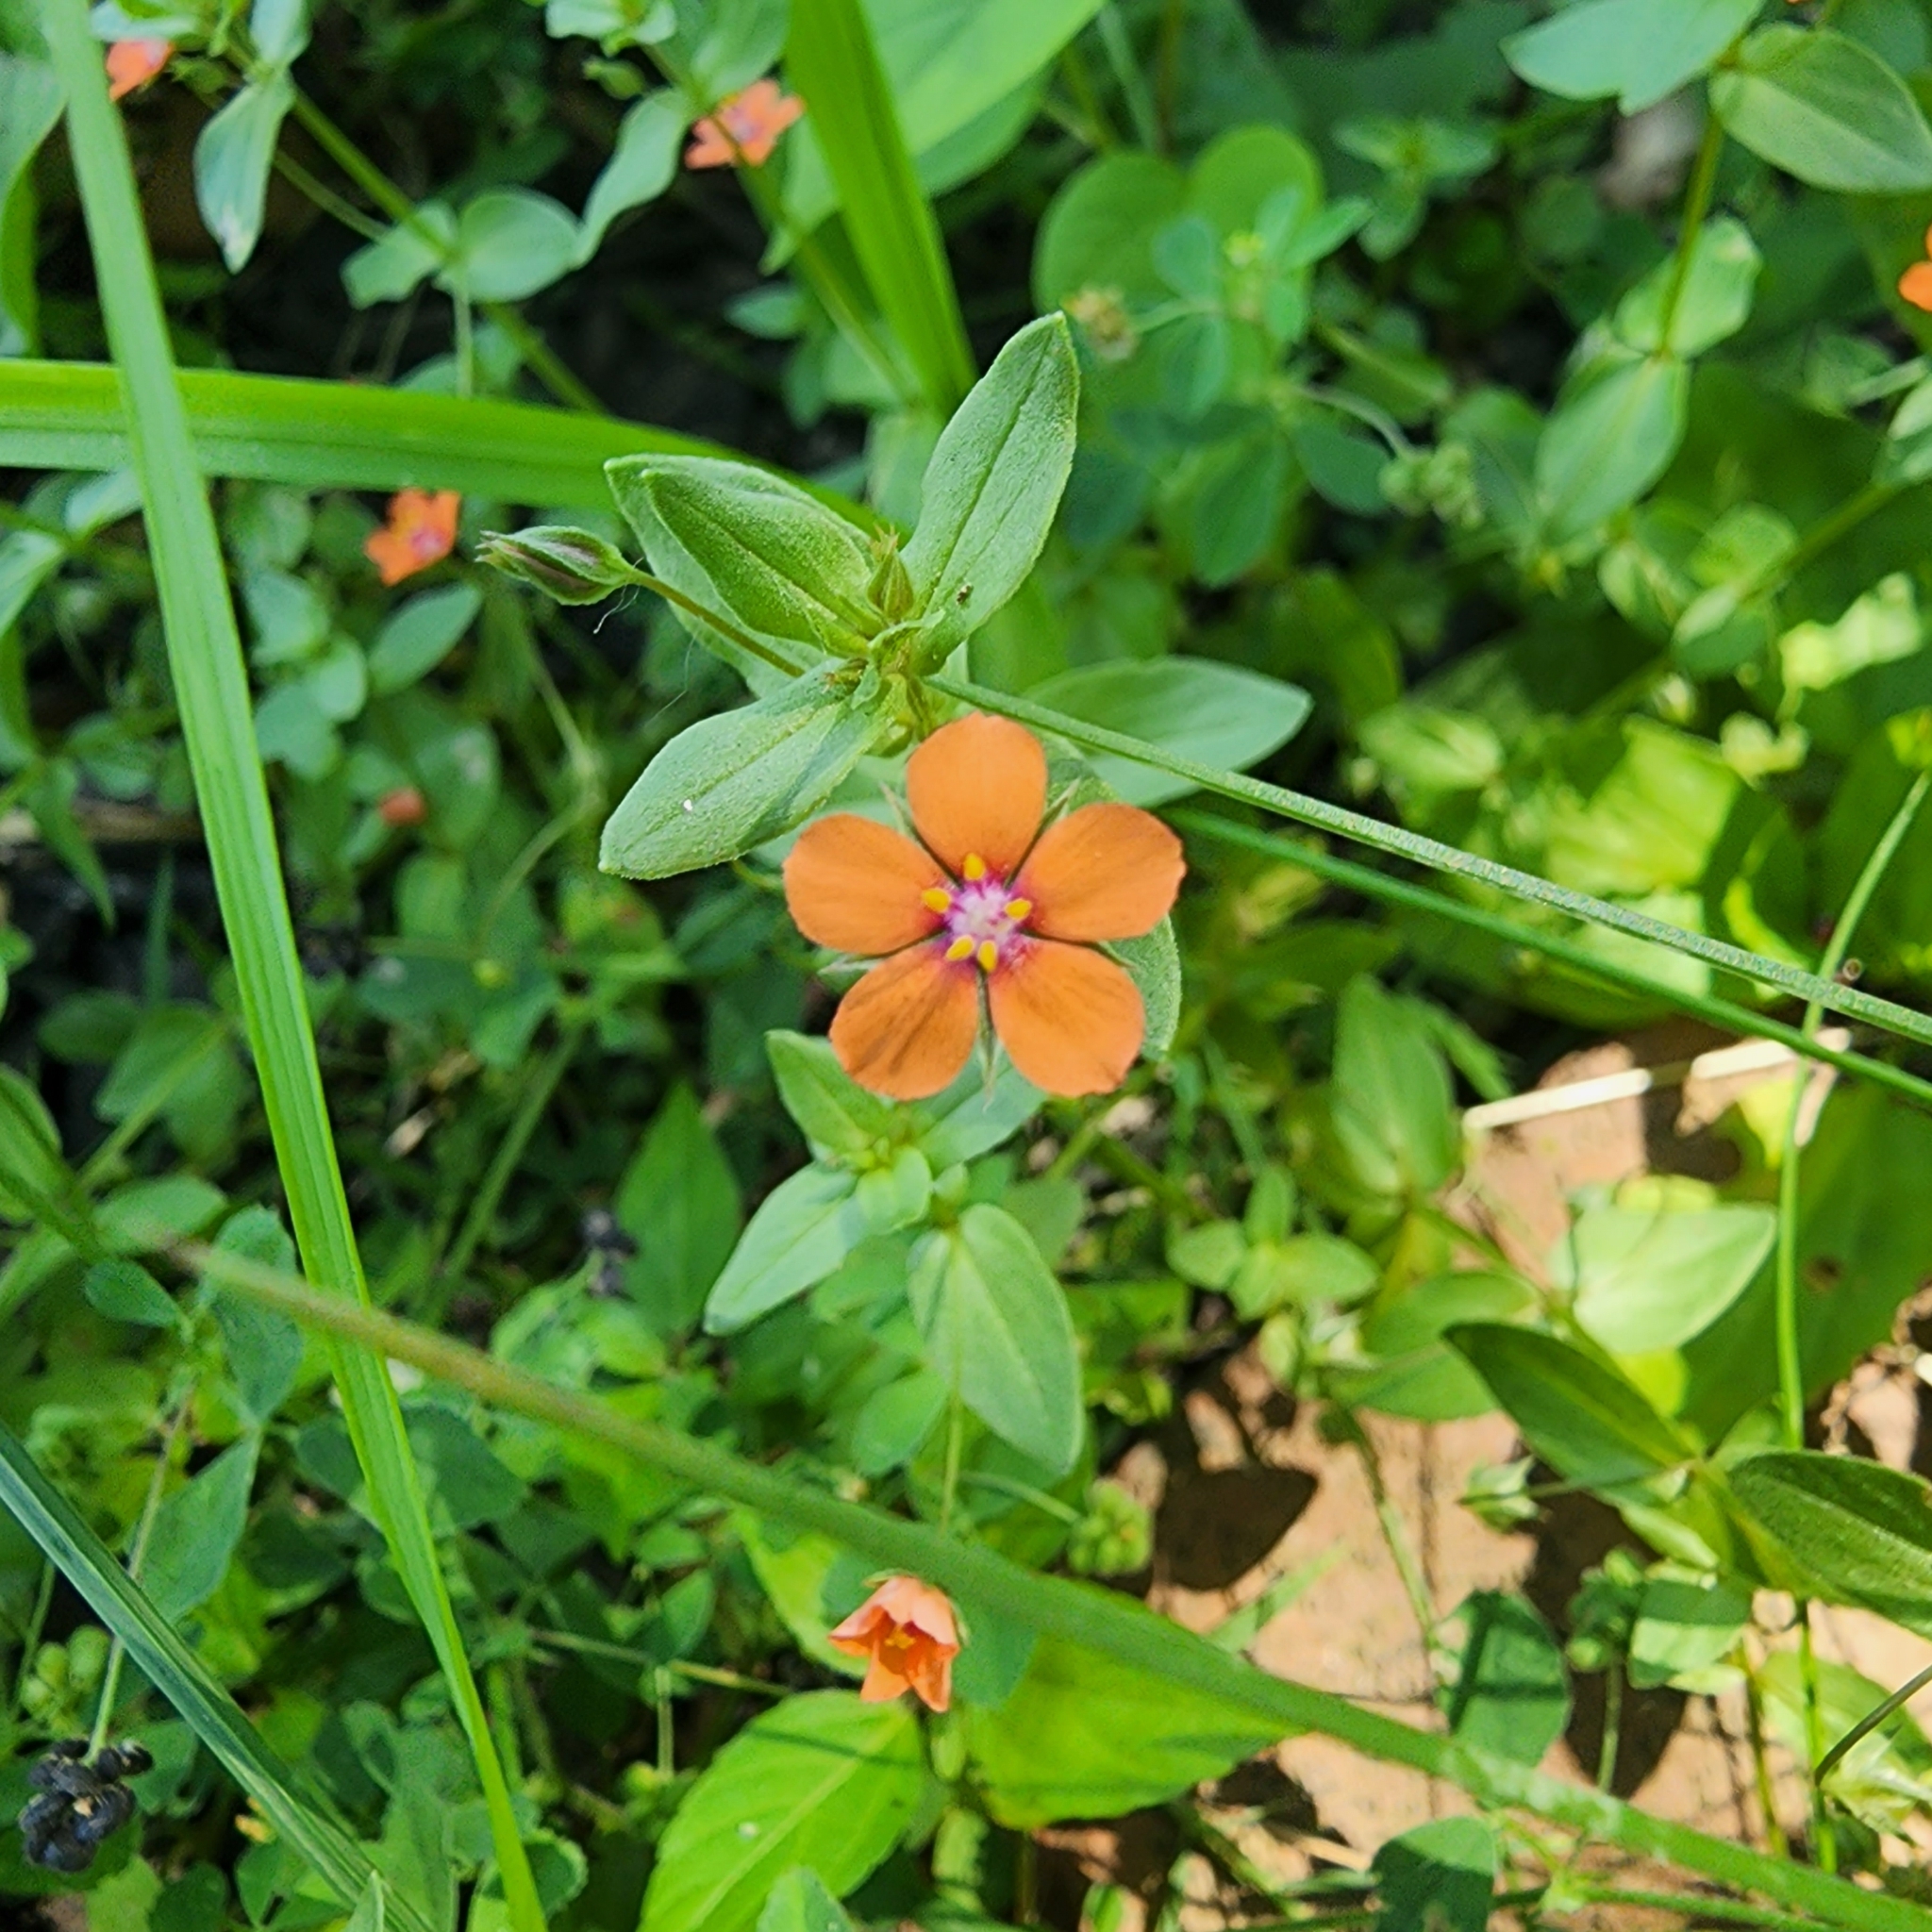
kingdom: Plantae
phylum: Tracheophyta
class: Magnoliopsida
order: Ericales
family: Primulaceae
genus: Lysimachia
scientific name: Lysimachia arvensis
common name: Scarlet pimpernel
